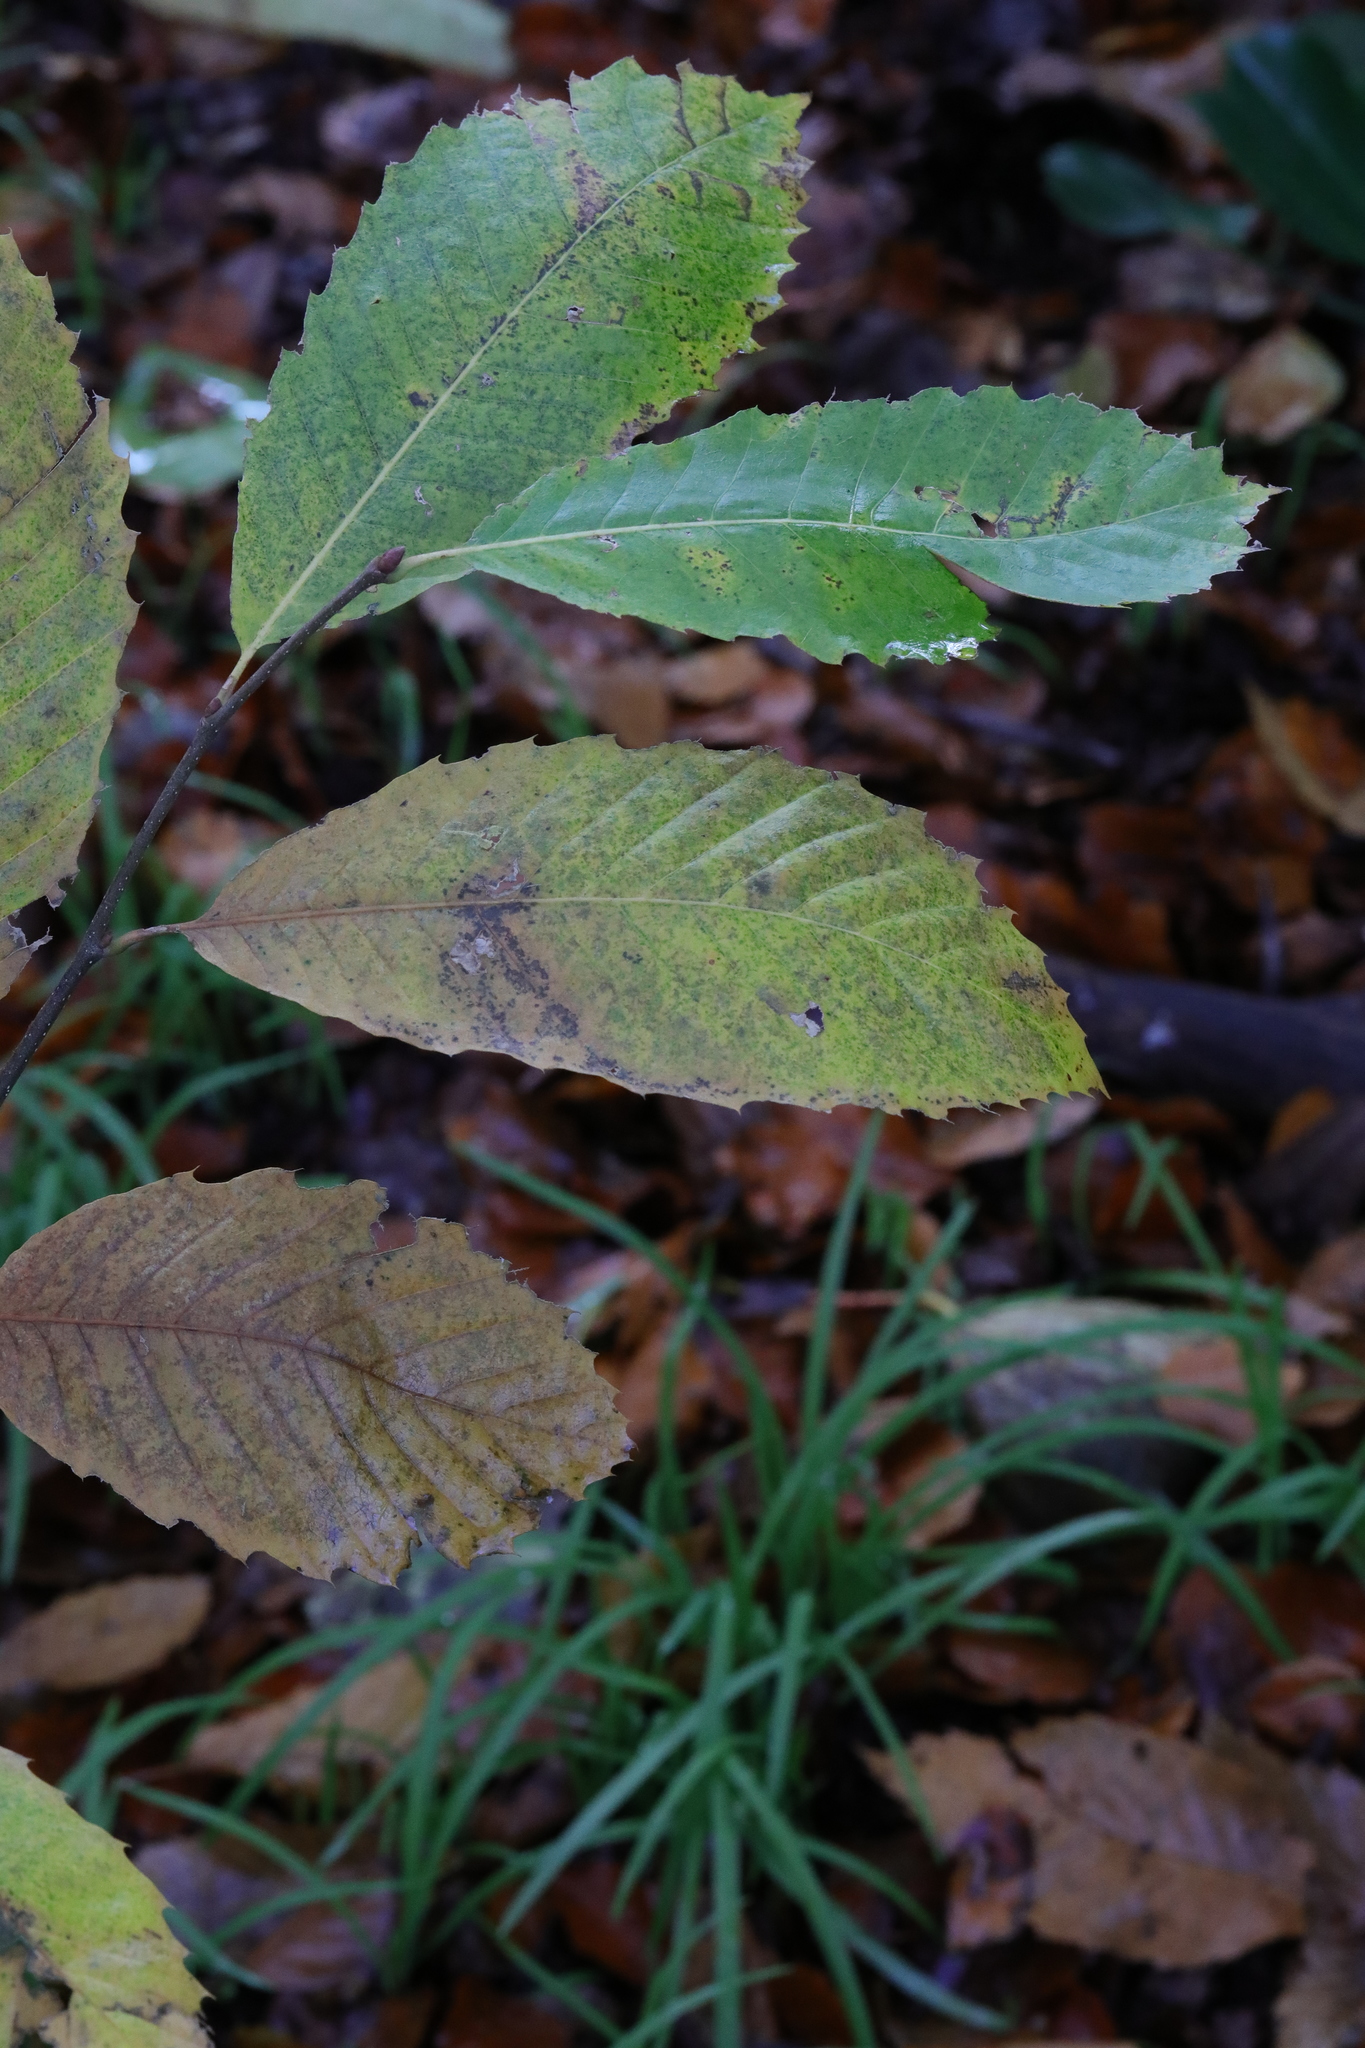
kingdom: Plantae
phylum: Tracheophyta
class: Magnoliopsida
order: Fagales
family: Fagaceae
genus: Castanea
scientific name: Castanea sativa
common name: Sweet chestnut
